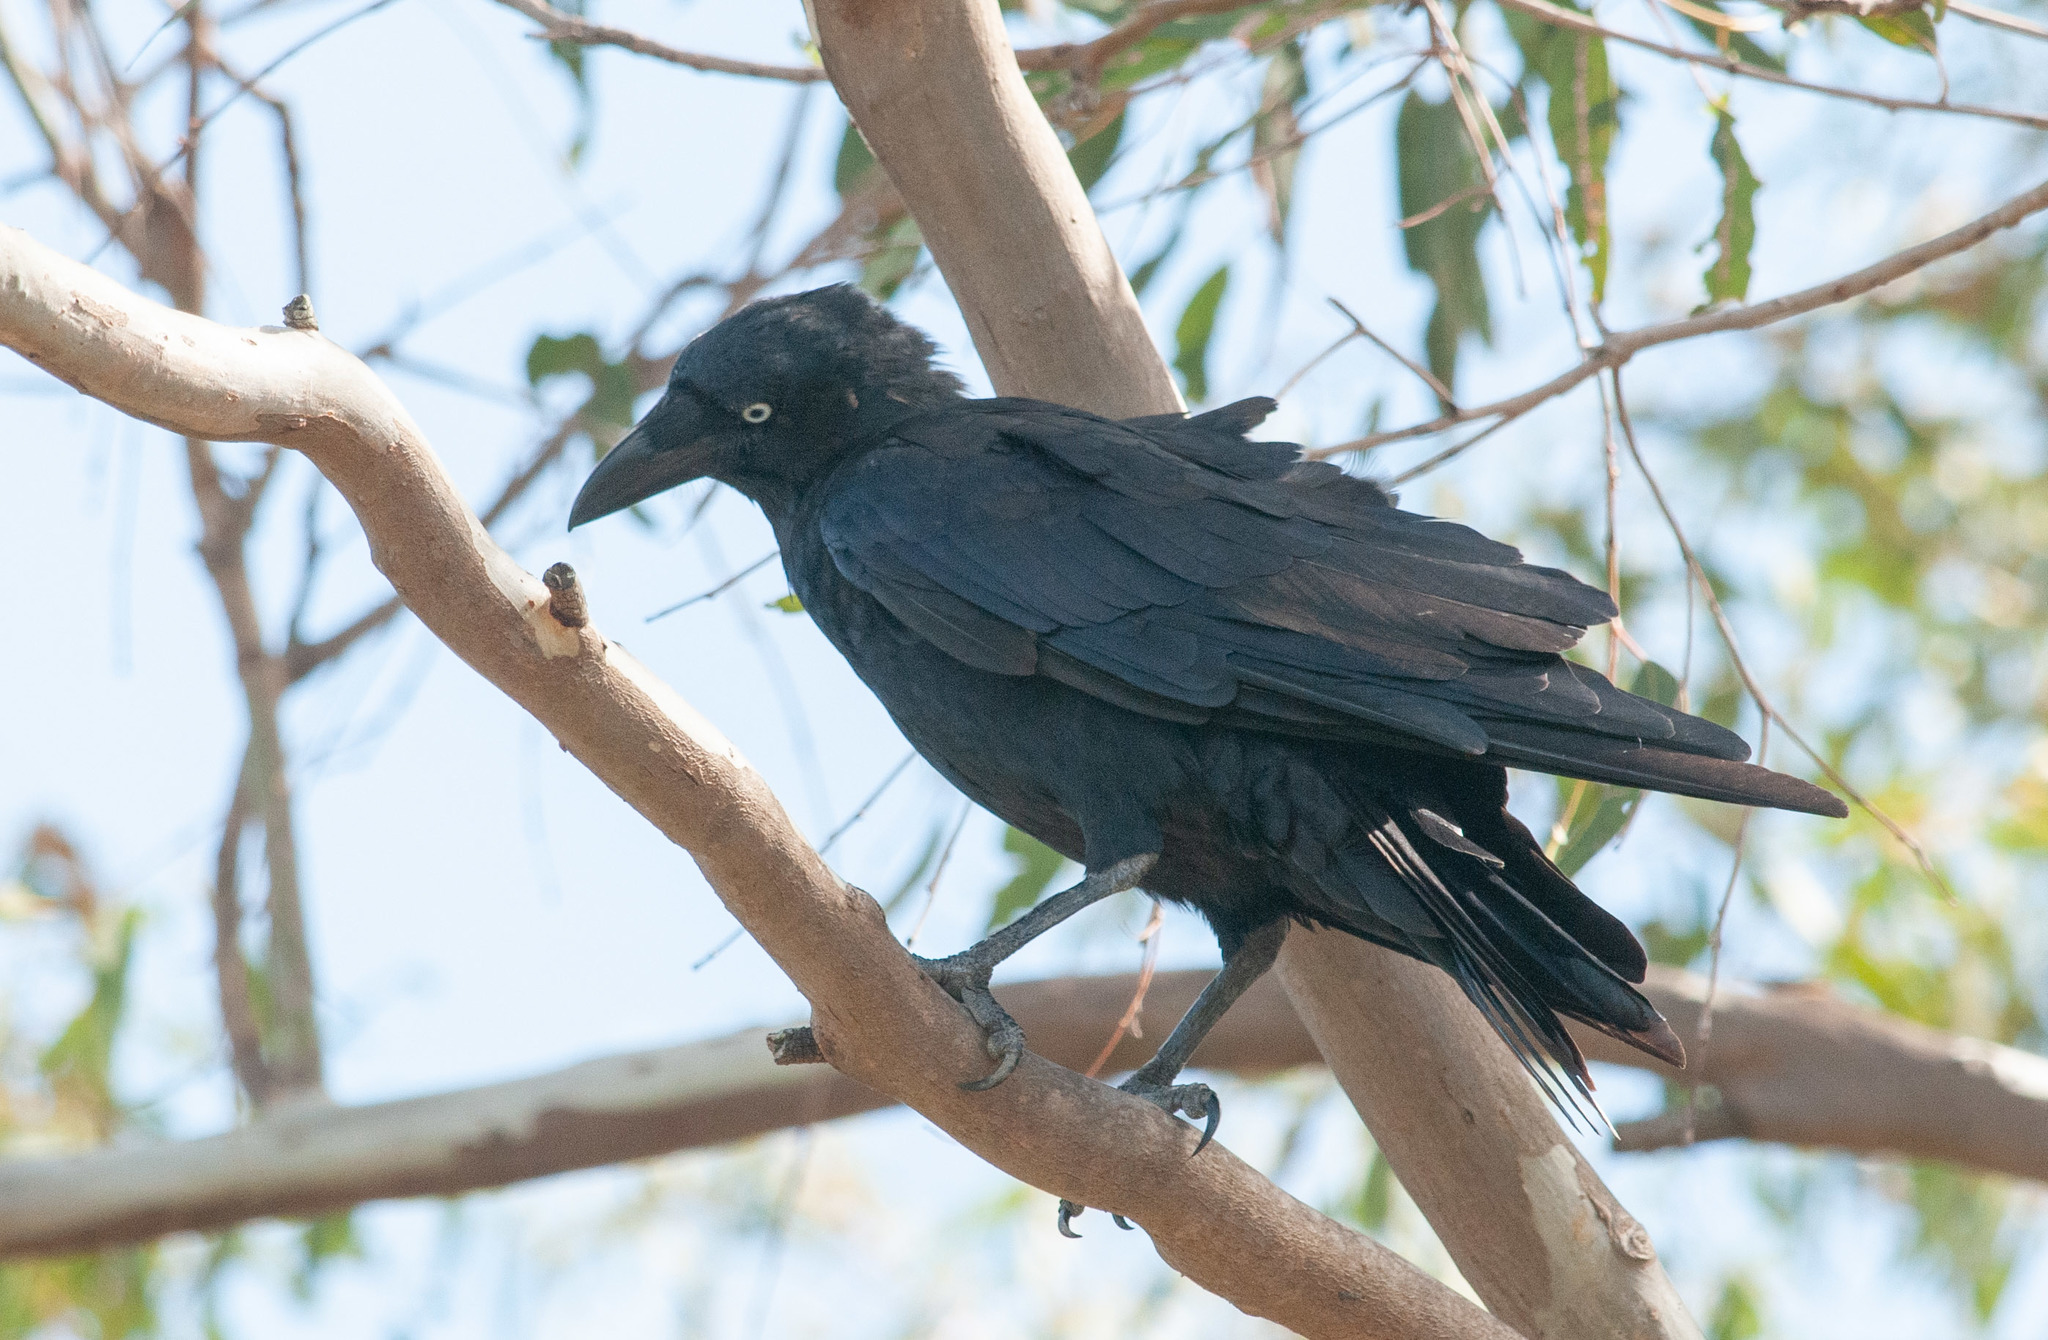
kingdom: Animalia
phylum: Chordata
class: Aves
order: Passeriformes
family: Corvidae
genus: Corvus
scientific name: Corvus orru
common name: Torresian crow
